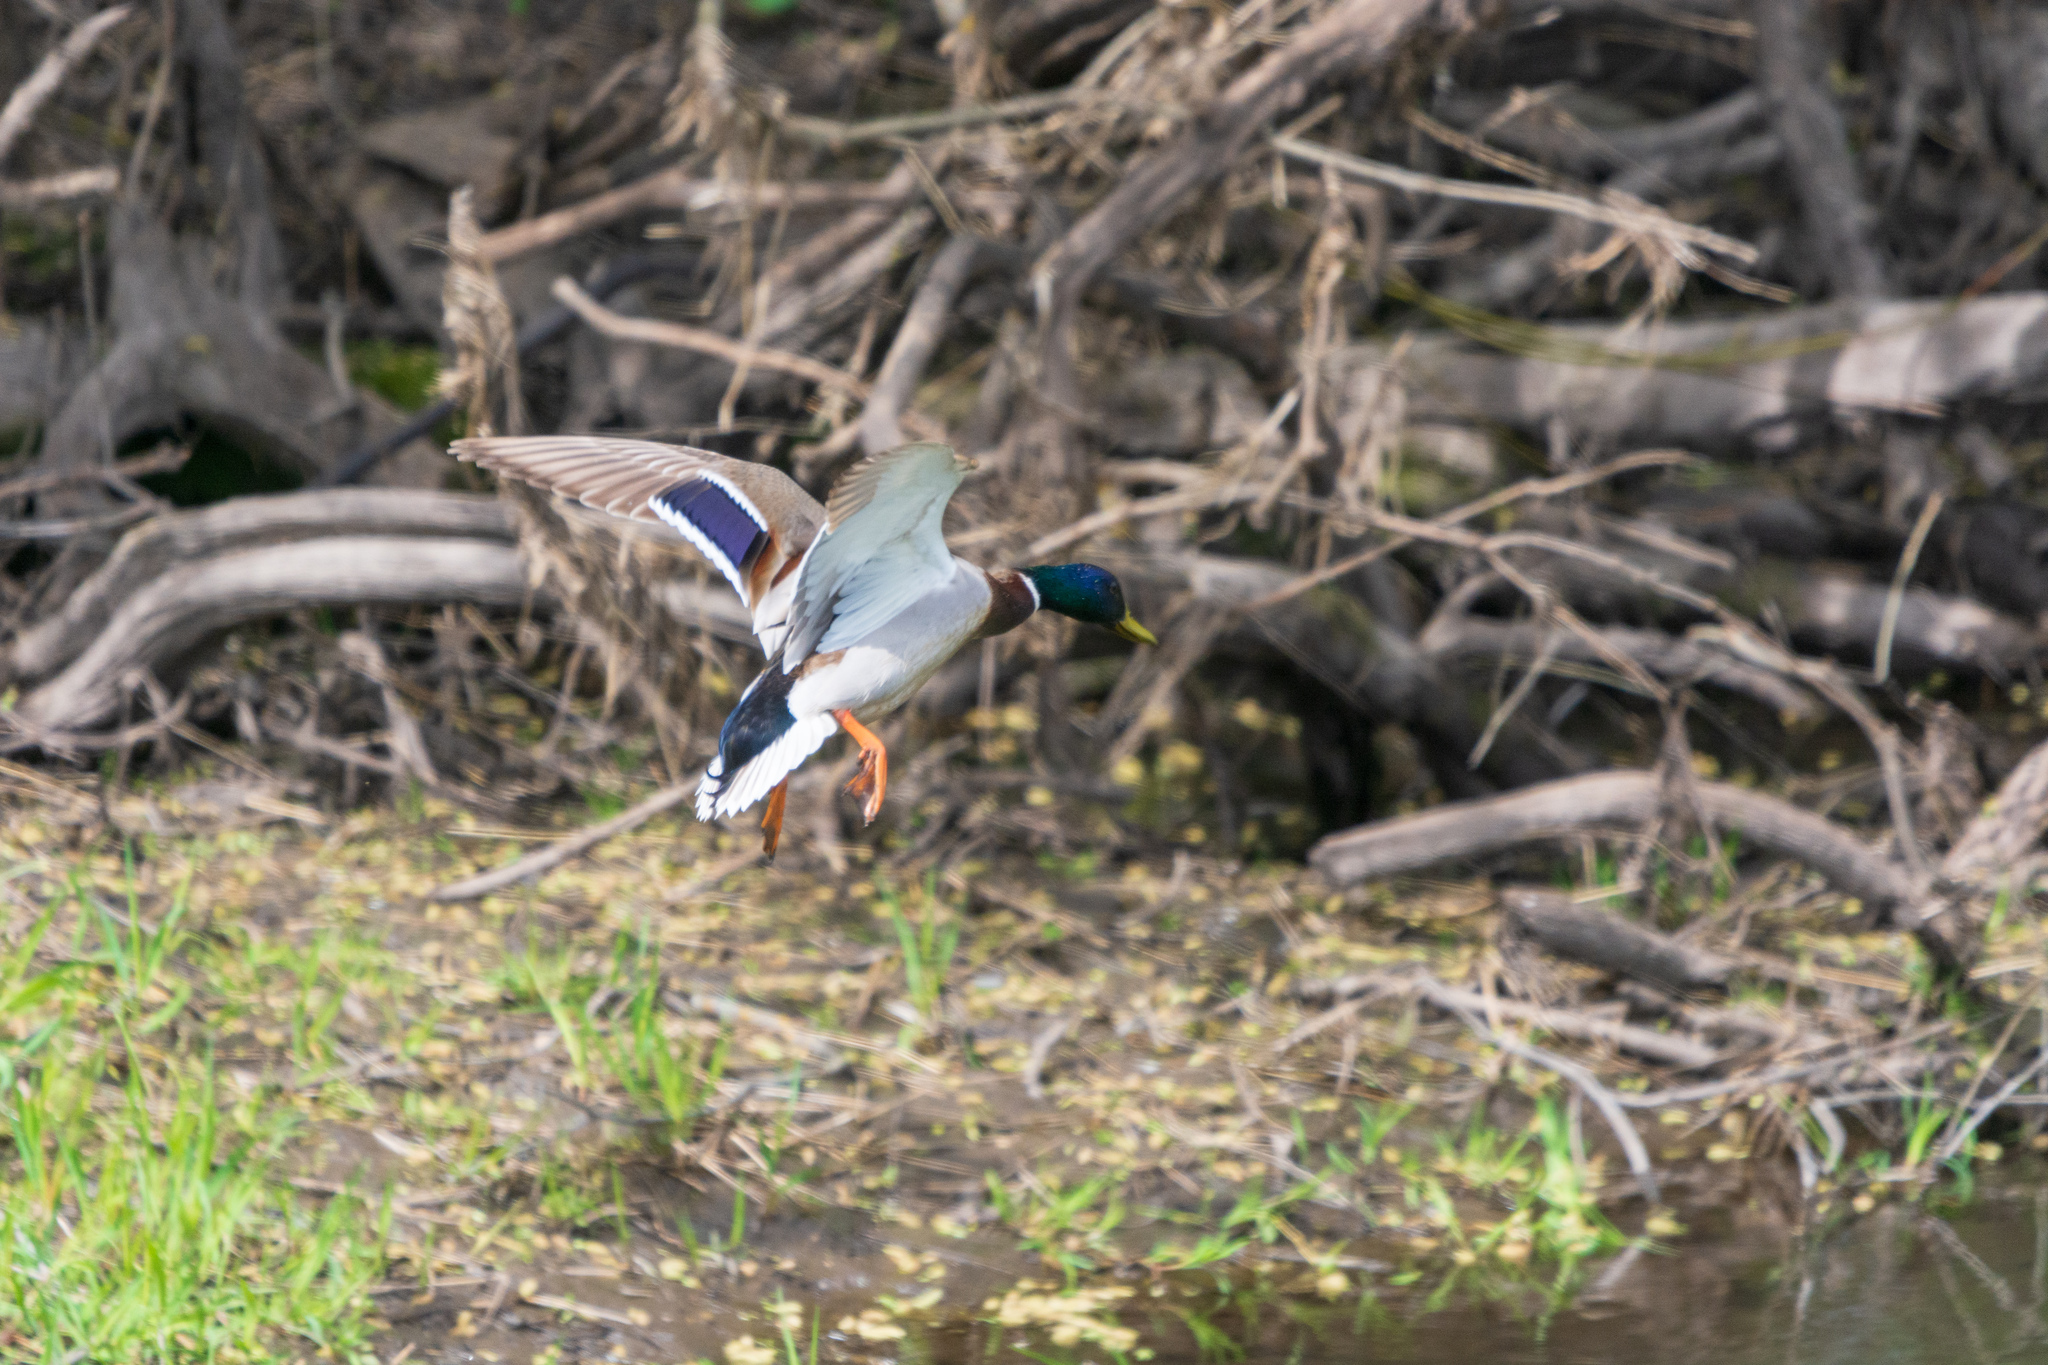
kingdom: Animalia
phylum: Chordata
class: Aves
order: Anseriformes
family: Anatidae
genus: Anas
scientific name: Anas platyrhynchos
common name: Mallard
